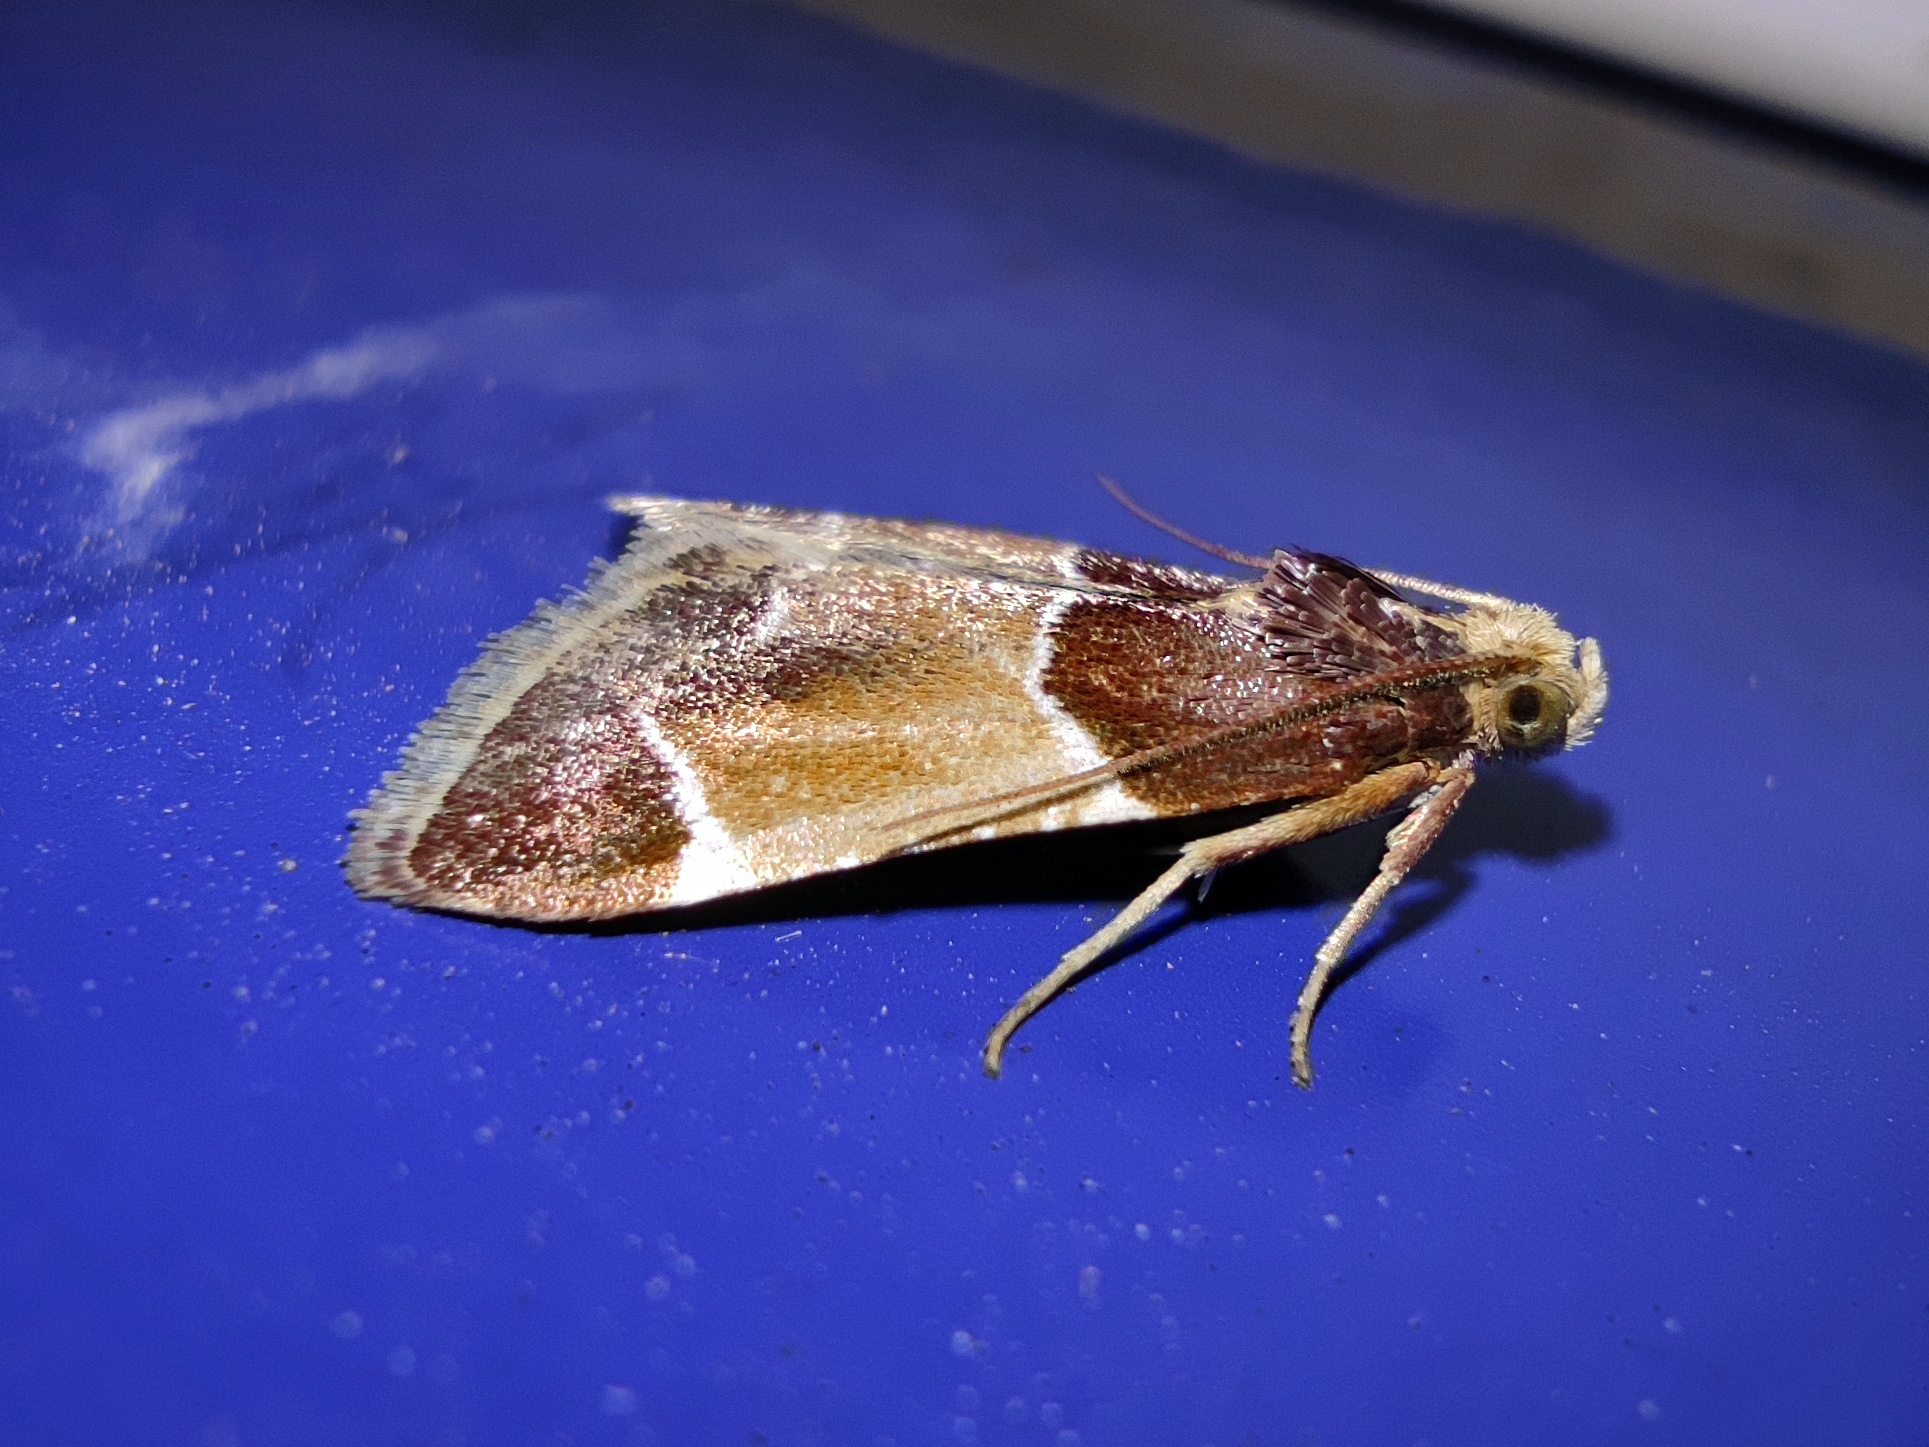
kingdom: Animalia
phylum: Arthropoda
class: Insecta
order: Lepidoptera
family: Pyralidae
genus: Pyralis
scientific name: Pyralis farinalis
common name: Meal moth
